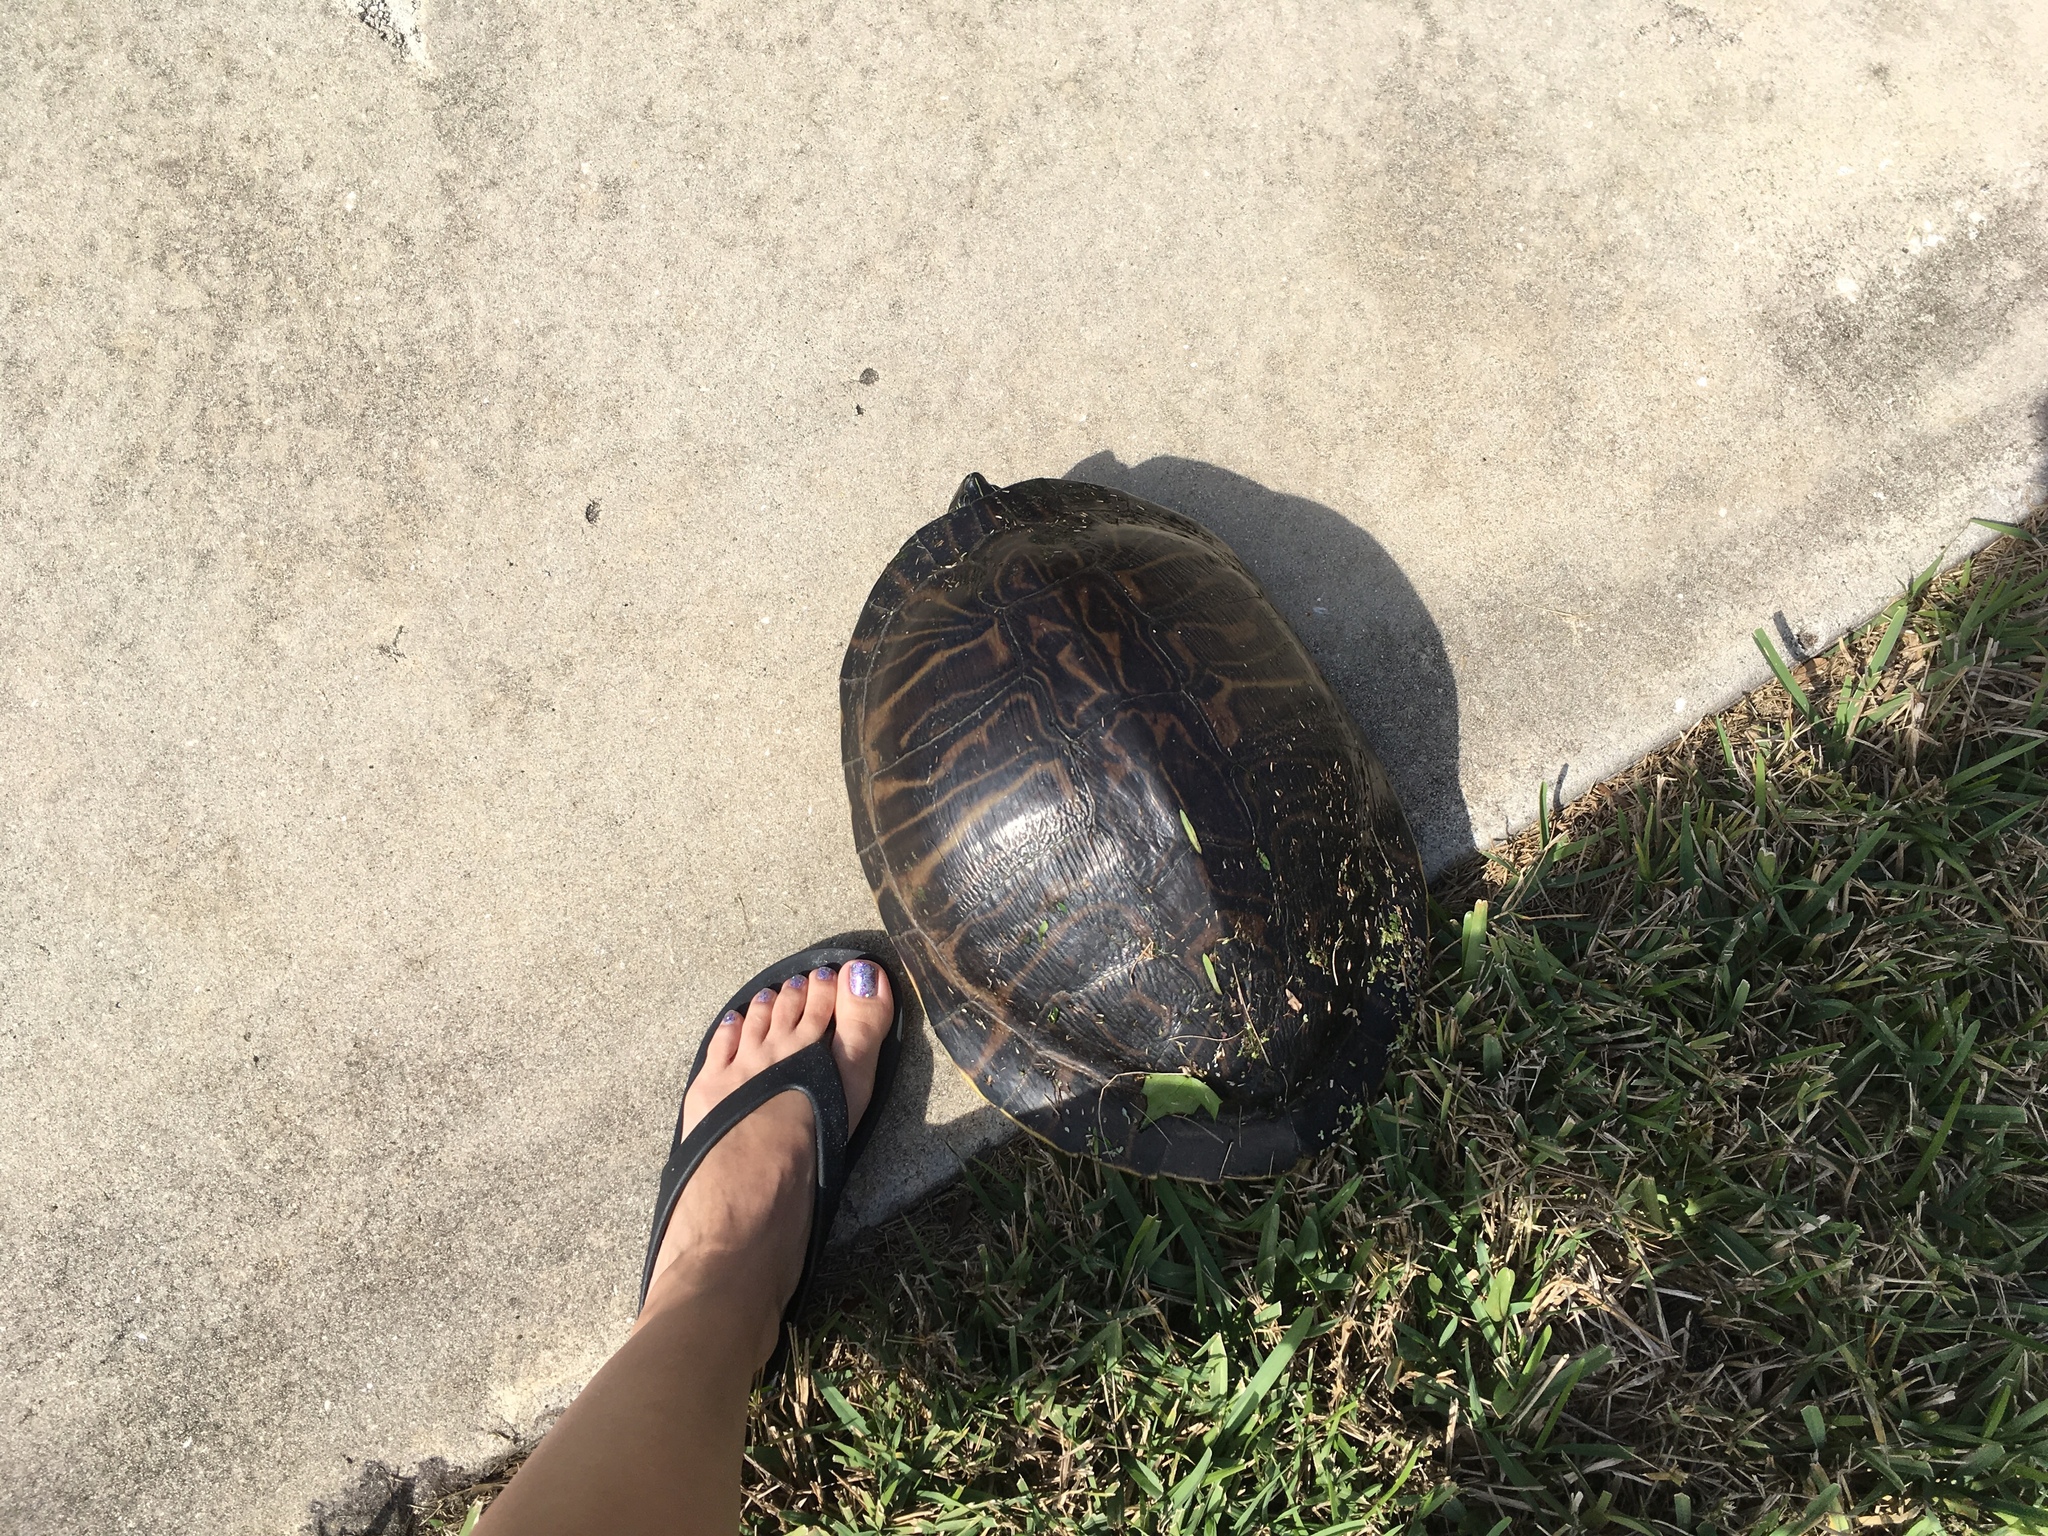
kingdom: Animalia
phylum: Chordata
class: Testudines
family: Emydidae
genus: Pseudemys
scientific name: Pseudemys peninsularis
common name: Peninsula cooter
